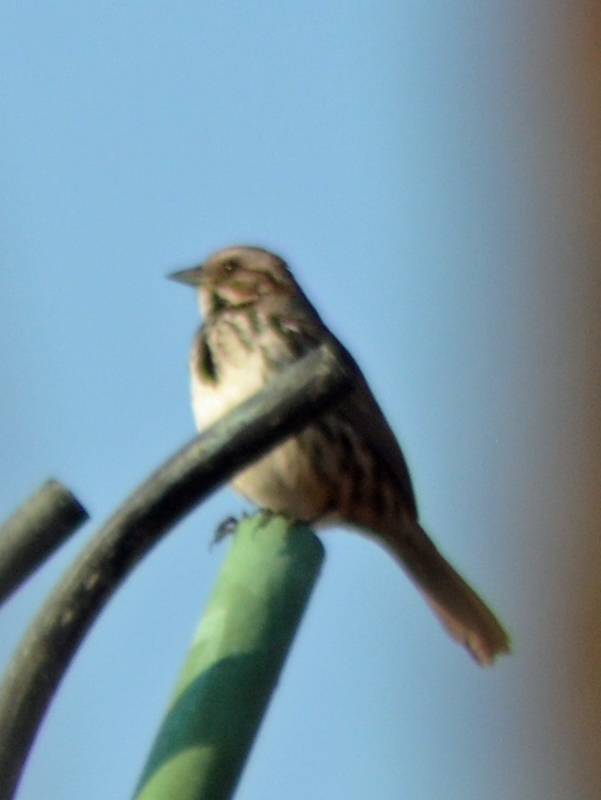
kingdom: Animalia
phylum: Chordata
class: Aves
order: Passeriformes
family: Passerellidae
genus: Melospiza
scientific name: Melospiza melodia
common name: Song sparrow
